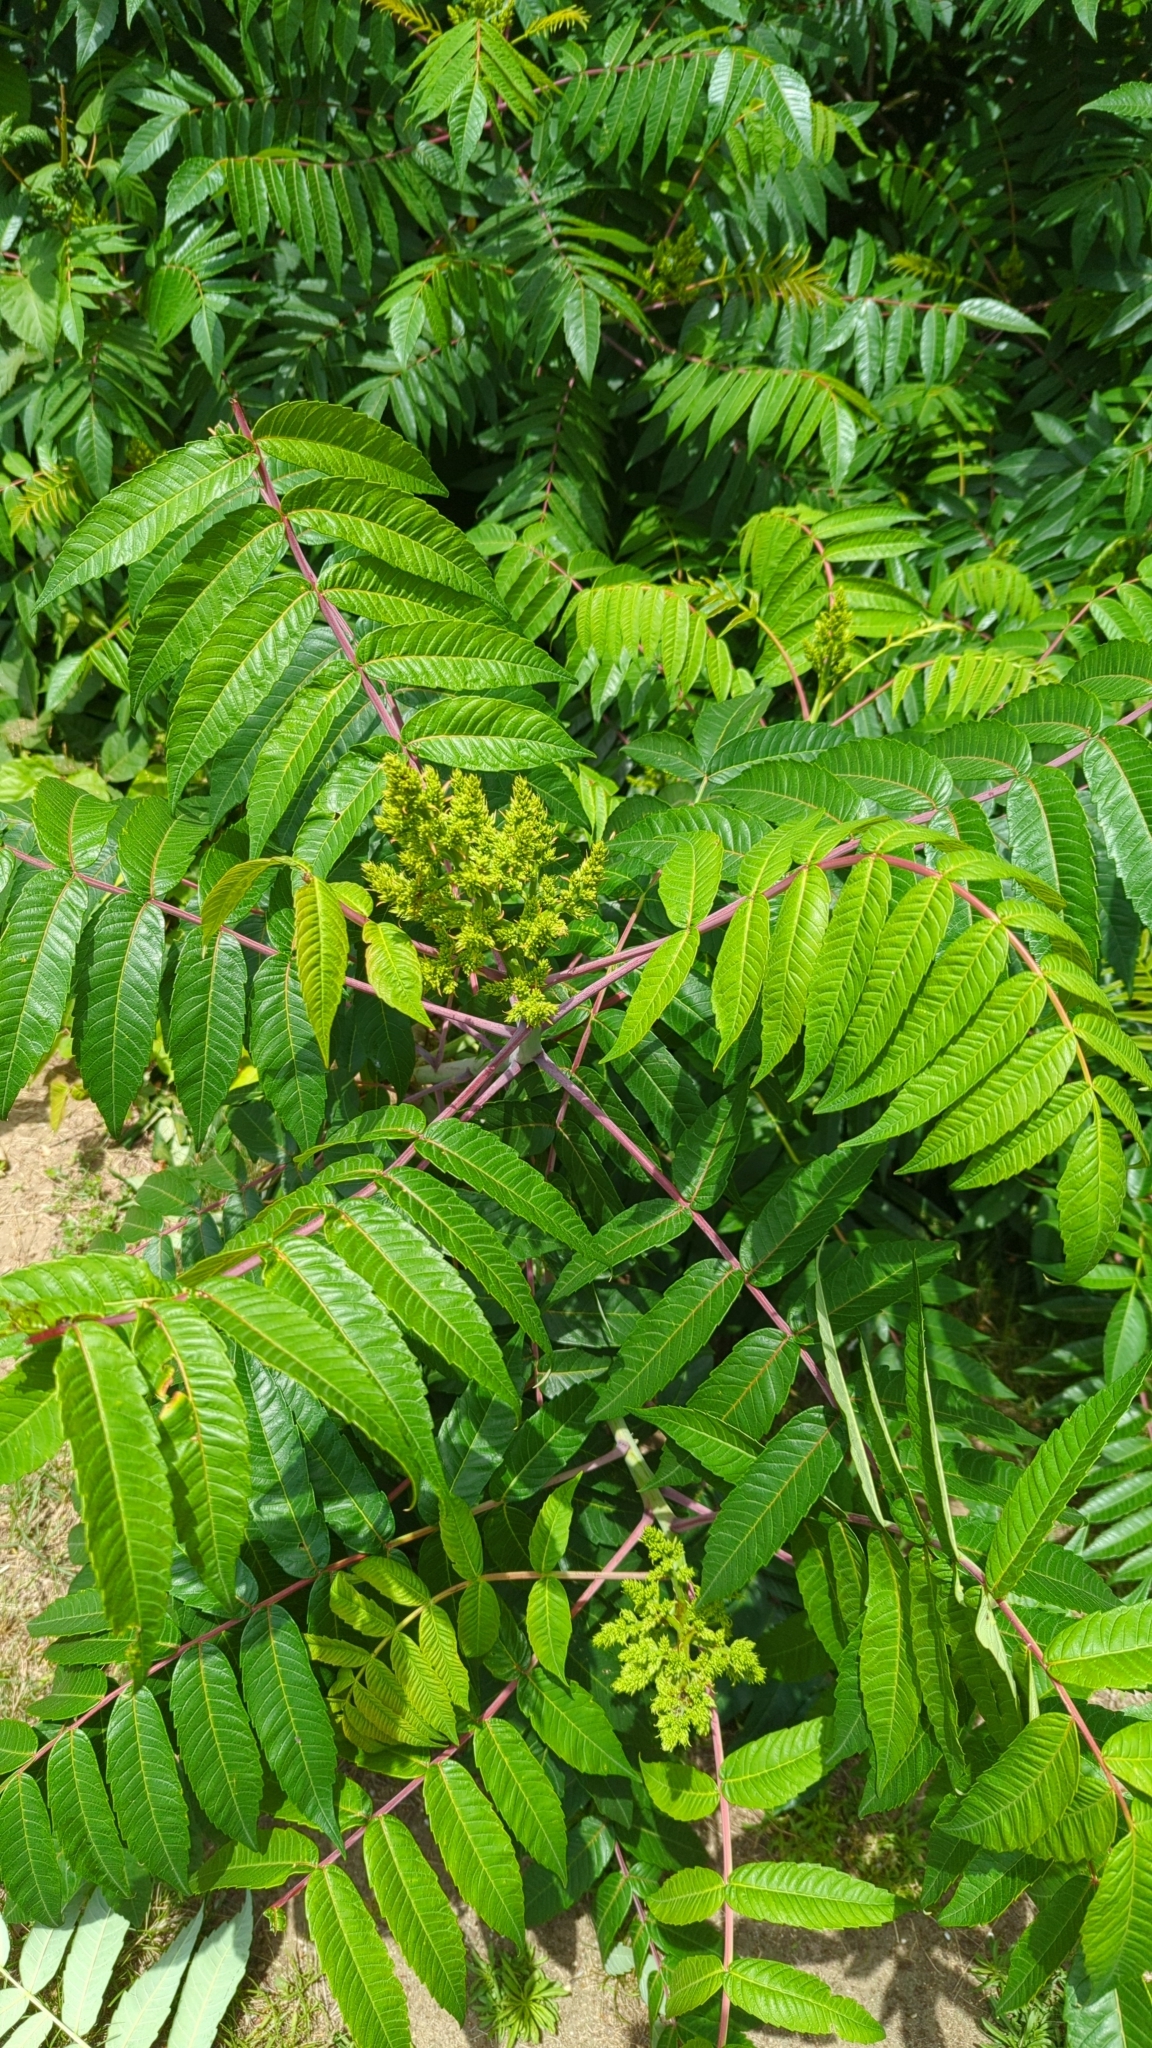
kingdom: Plantae
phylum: Tracheophyta
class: Magnoliopsida
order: Sapindales
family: Anacardiaceae
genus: Rhus
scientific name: Rhus glabra
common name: Scarlet sumac
